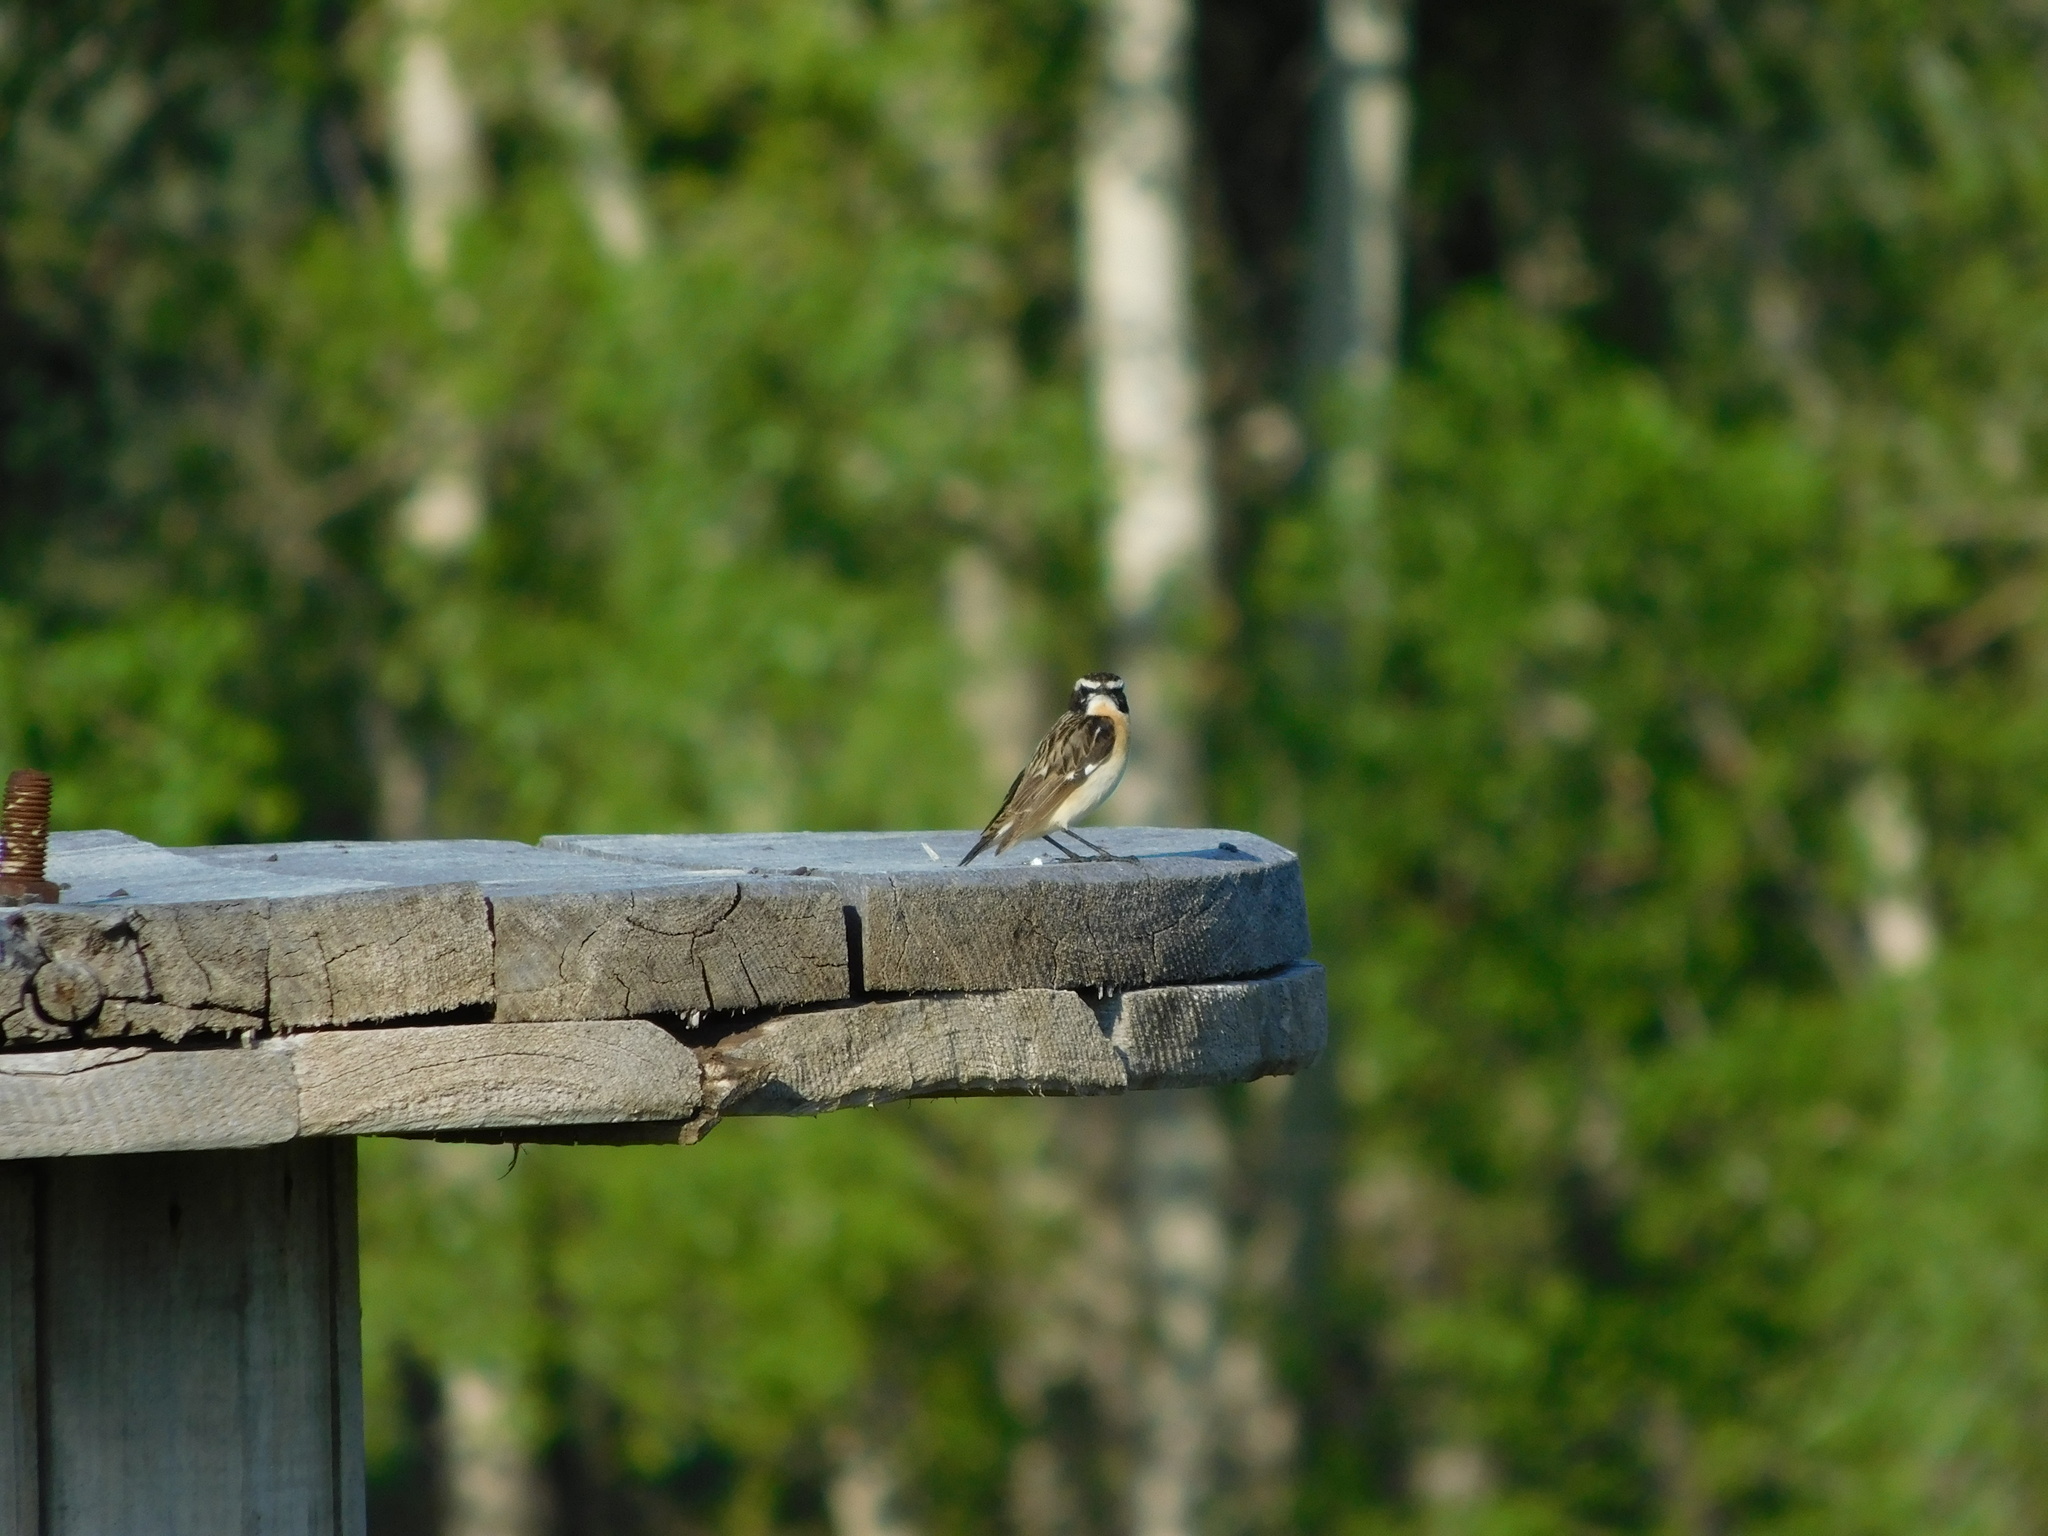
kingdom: Animalia
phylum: Chordata
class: Aves
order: Passeriformes
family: Muscicapidae
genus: Saxicola
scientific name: Saxicola rubetra
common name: Whinchat
